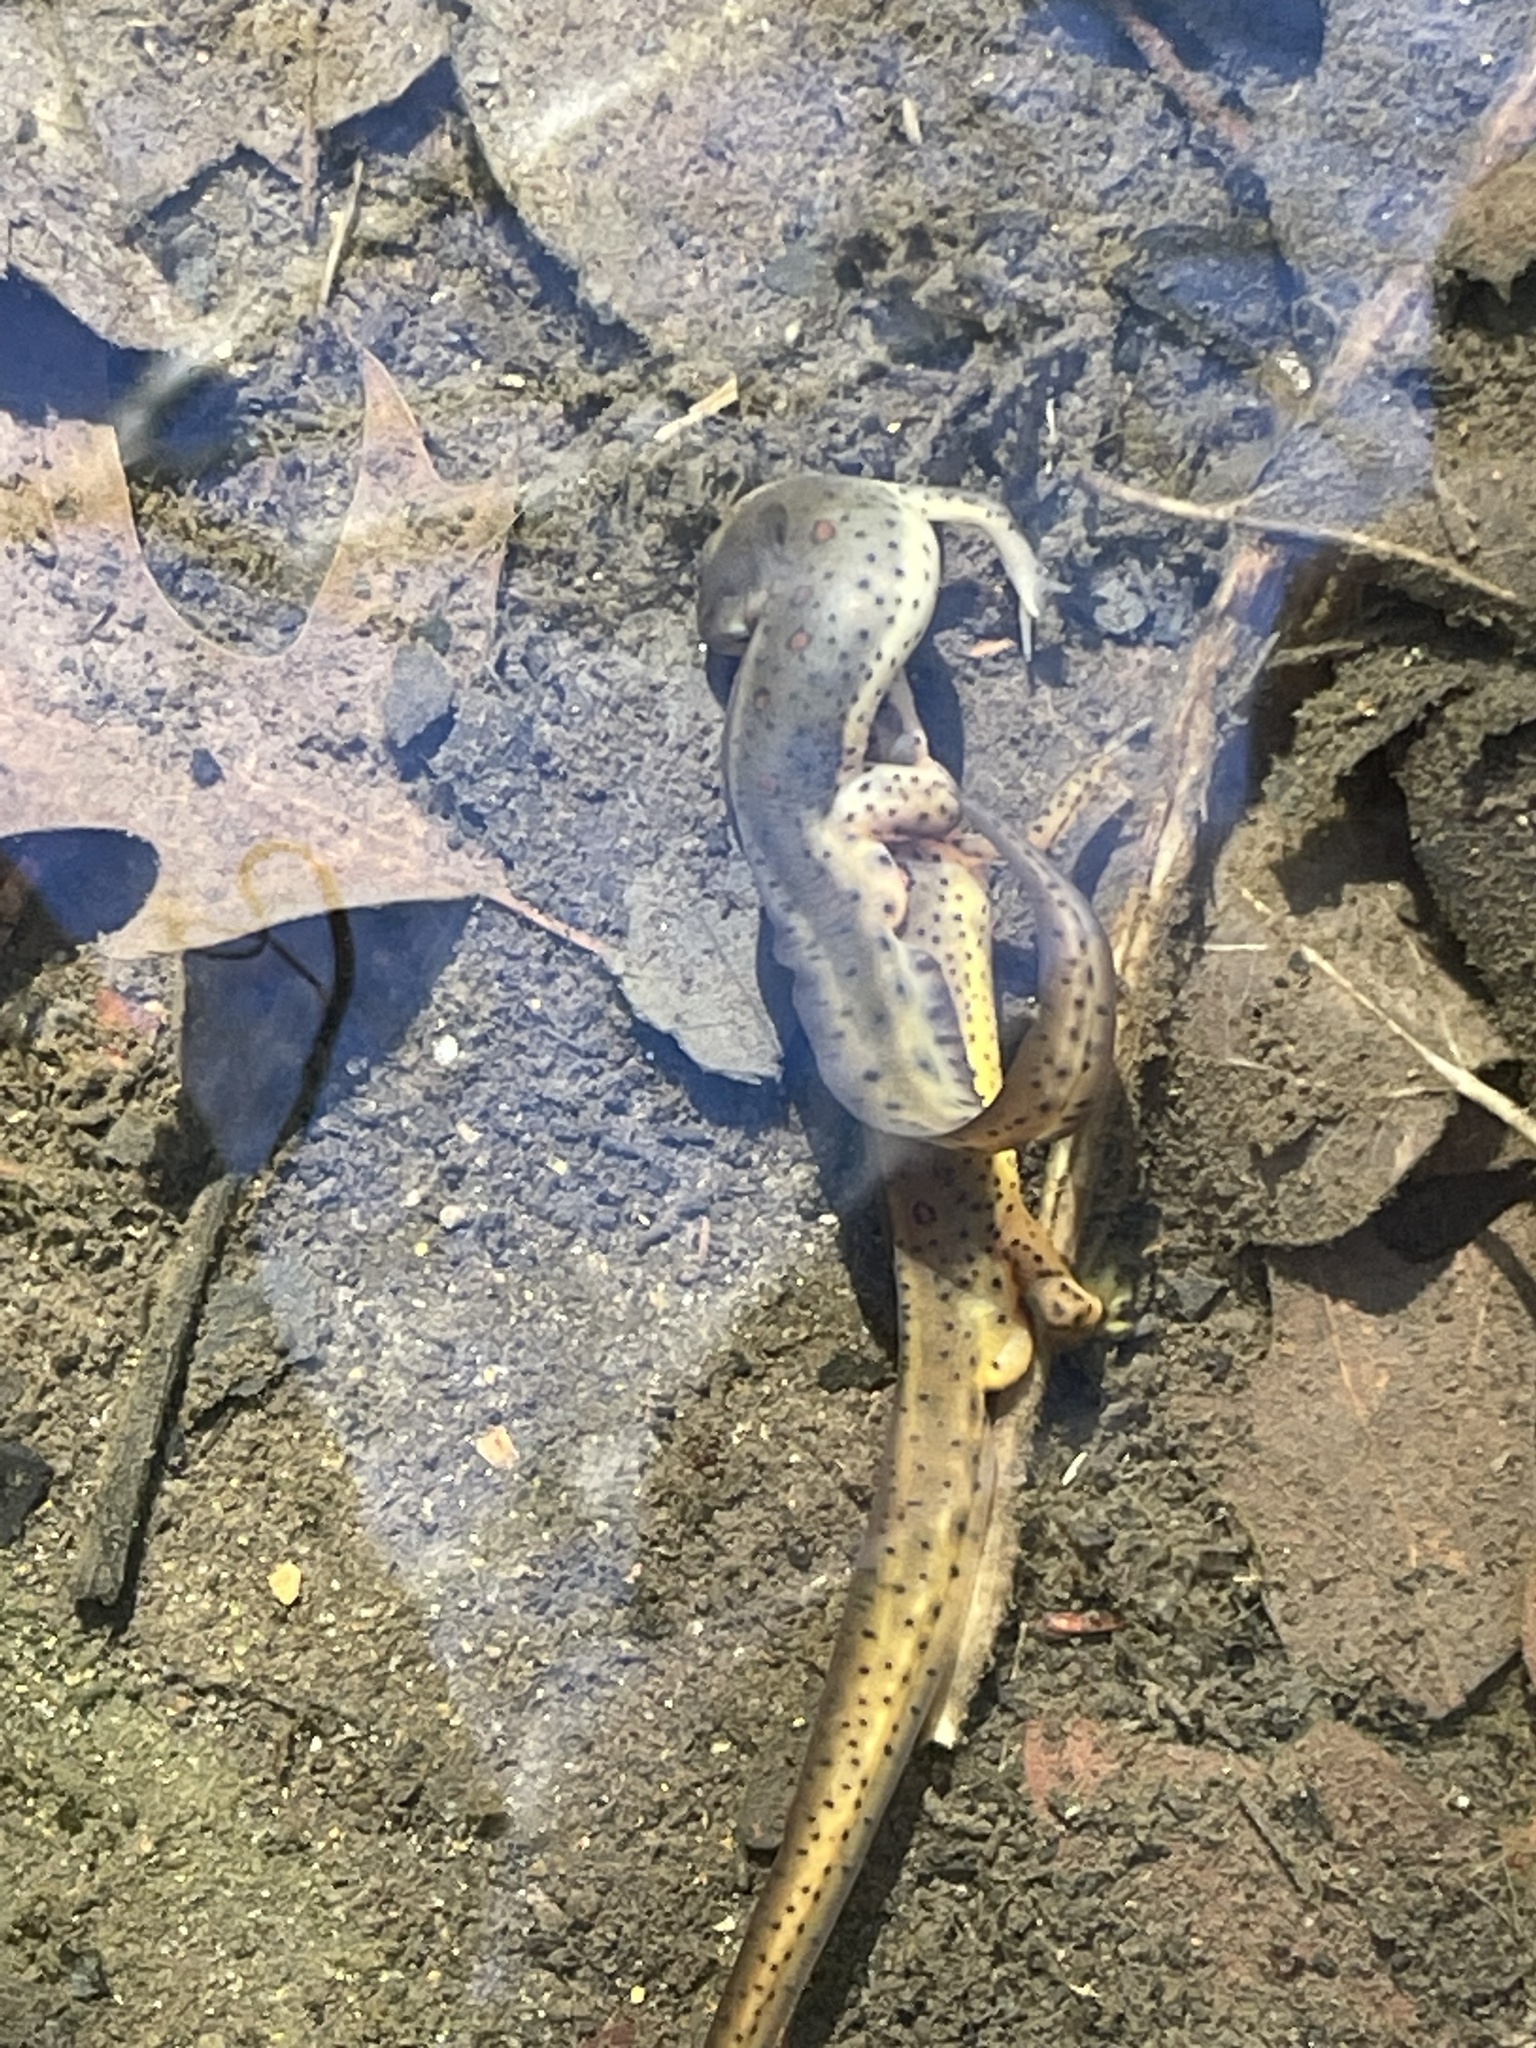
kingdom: Animalia
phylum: Chordata
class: Amphibia
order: Caudata
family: Salamandridae
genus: Notophthalmus
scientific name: Notophthalmus viridescens
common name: Eastern newt
